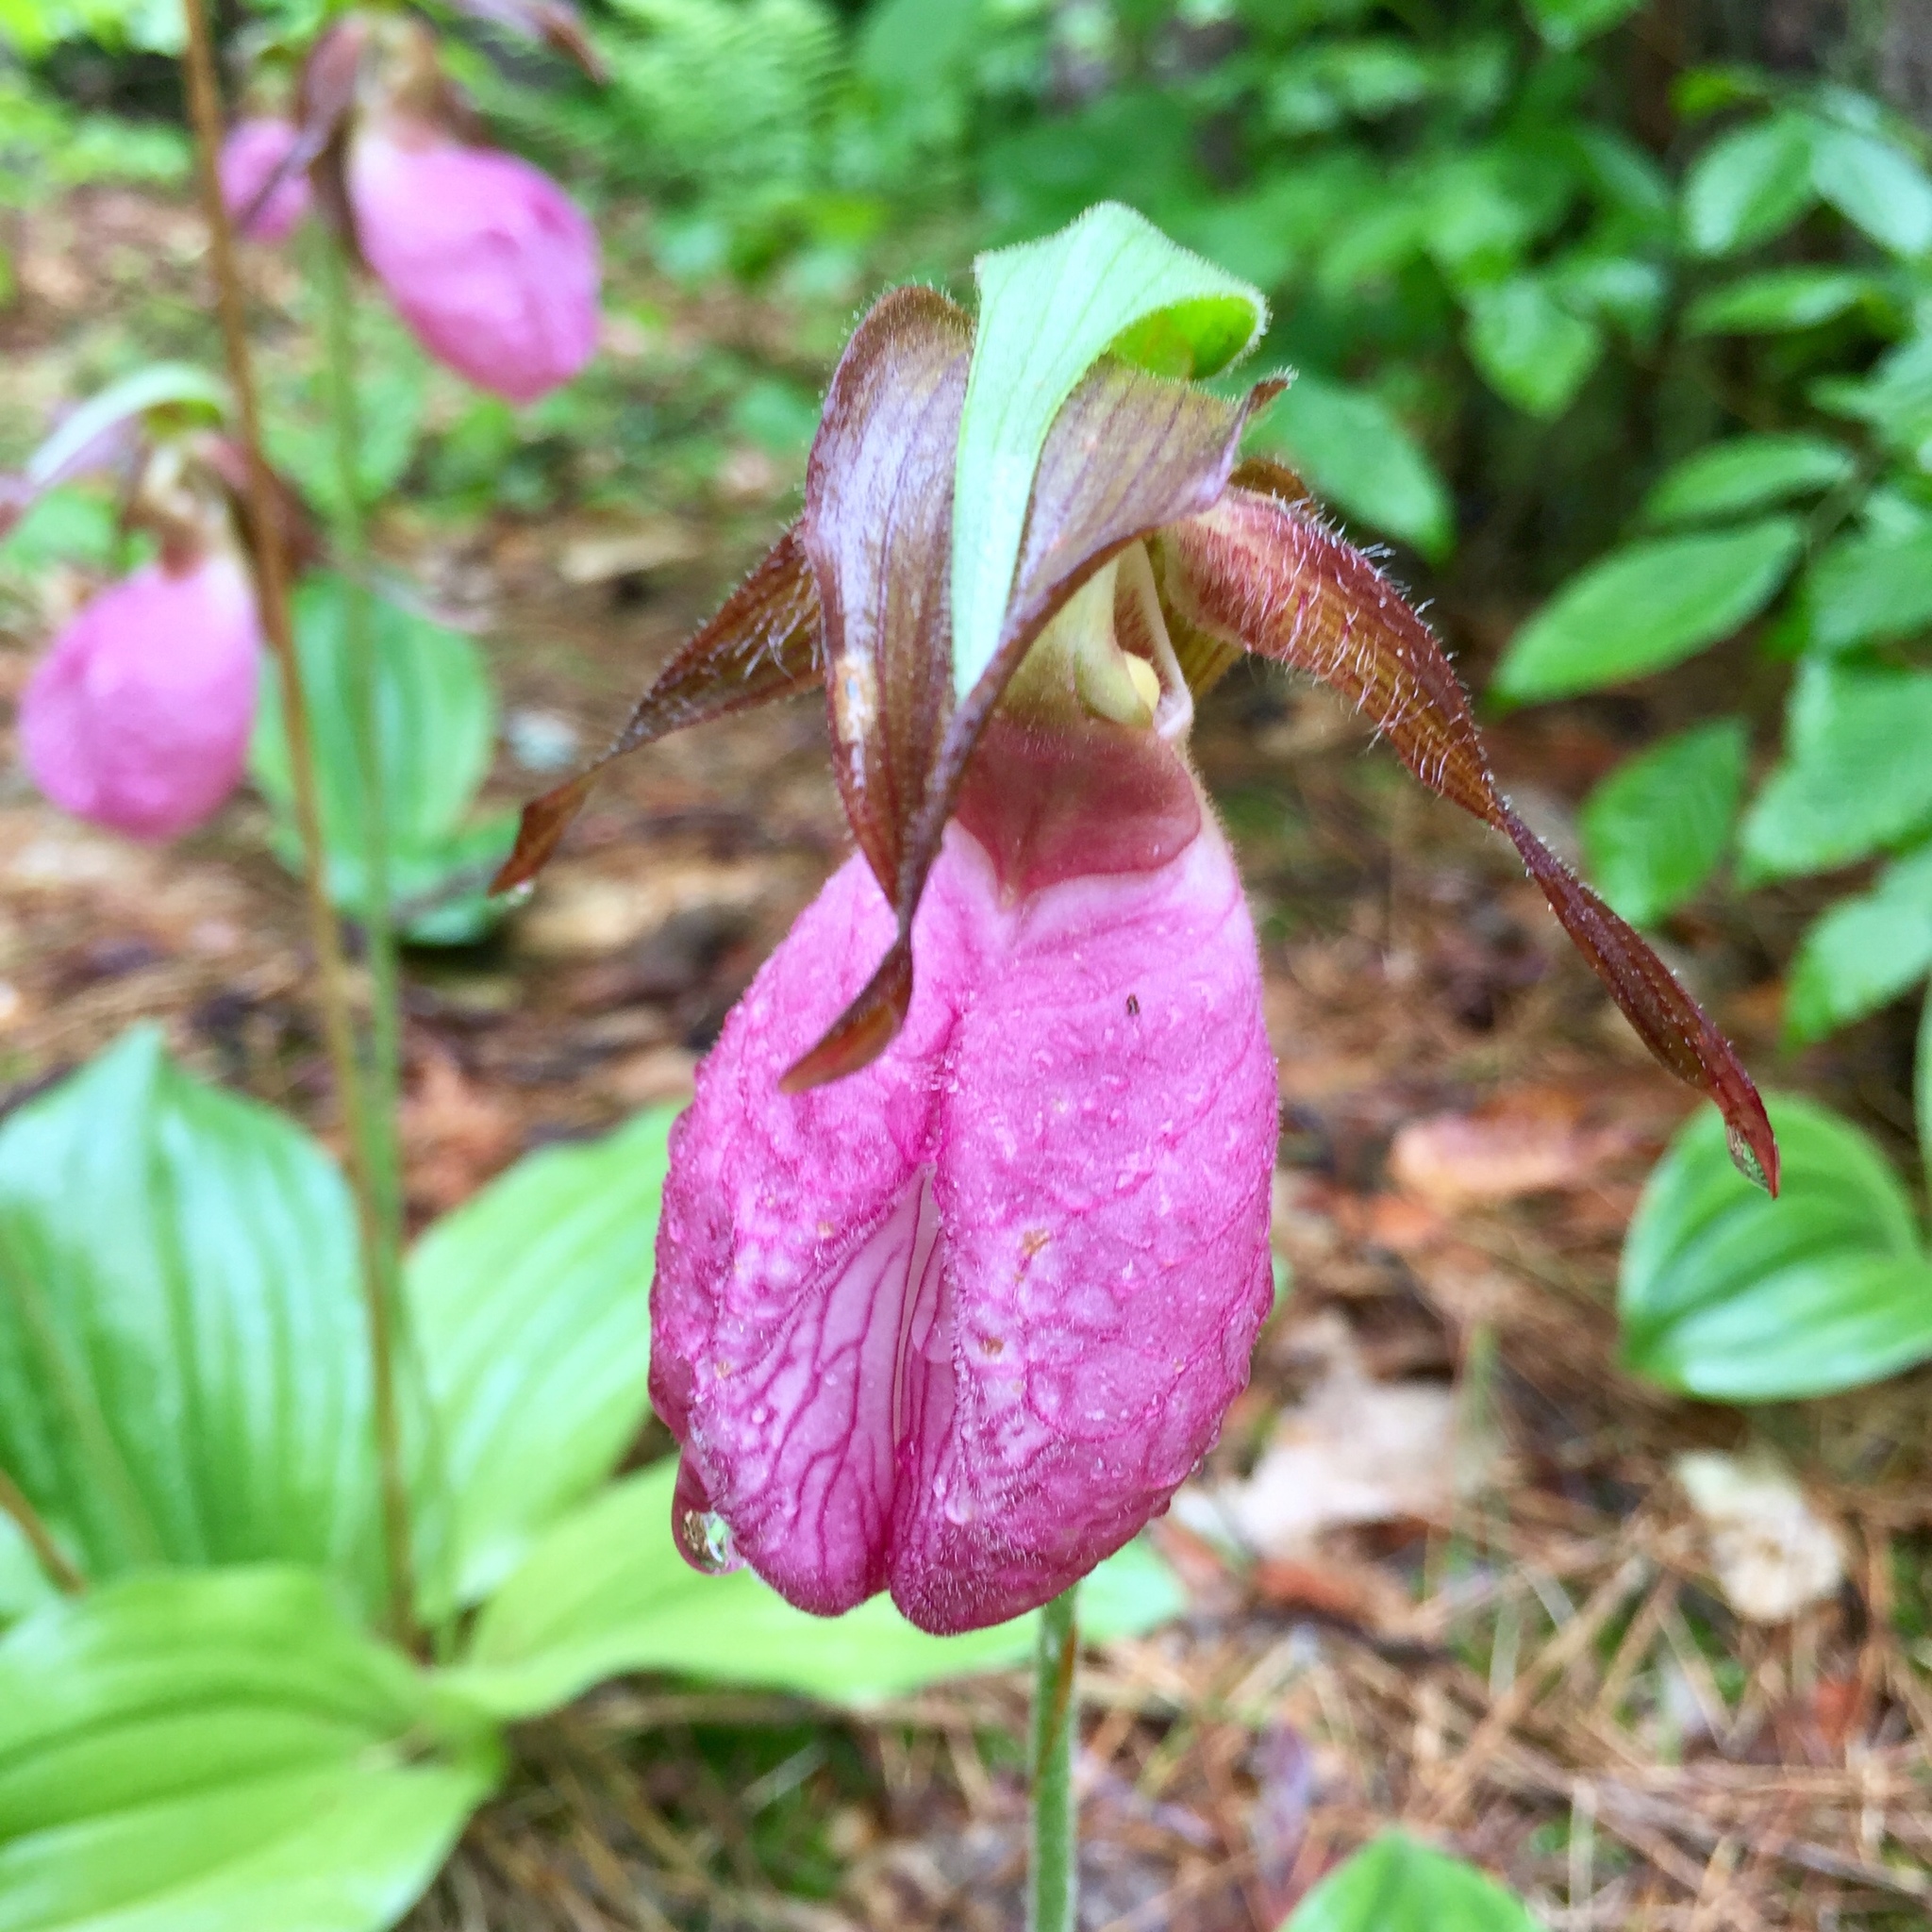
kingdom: Plantae
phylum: Tracheophyta
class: Liliopsida
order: Asparagales
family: Orchidaceae
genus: Cypripedium
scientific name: Cypripedium acaule
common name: Pink lady's-slipper
